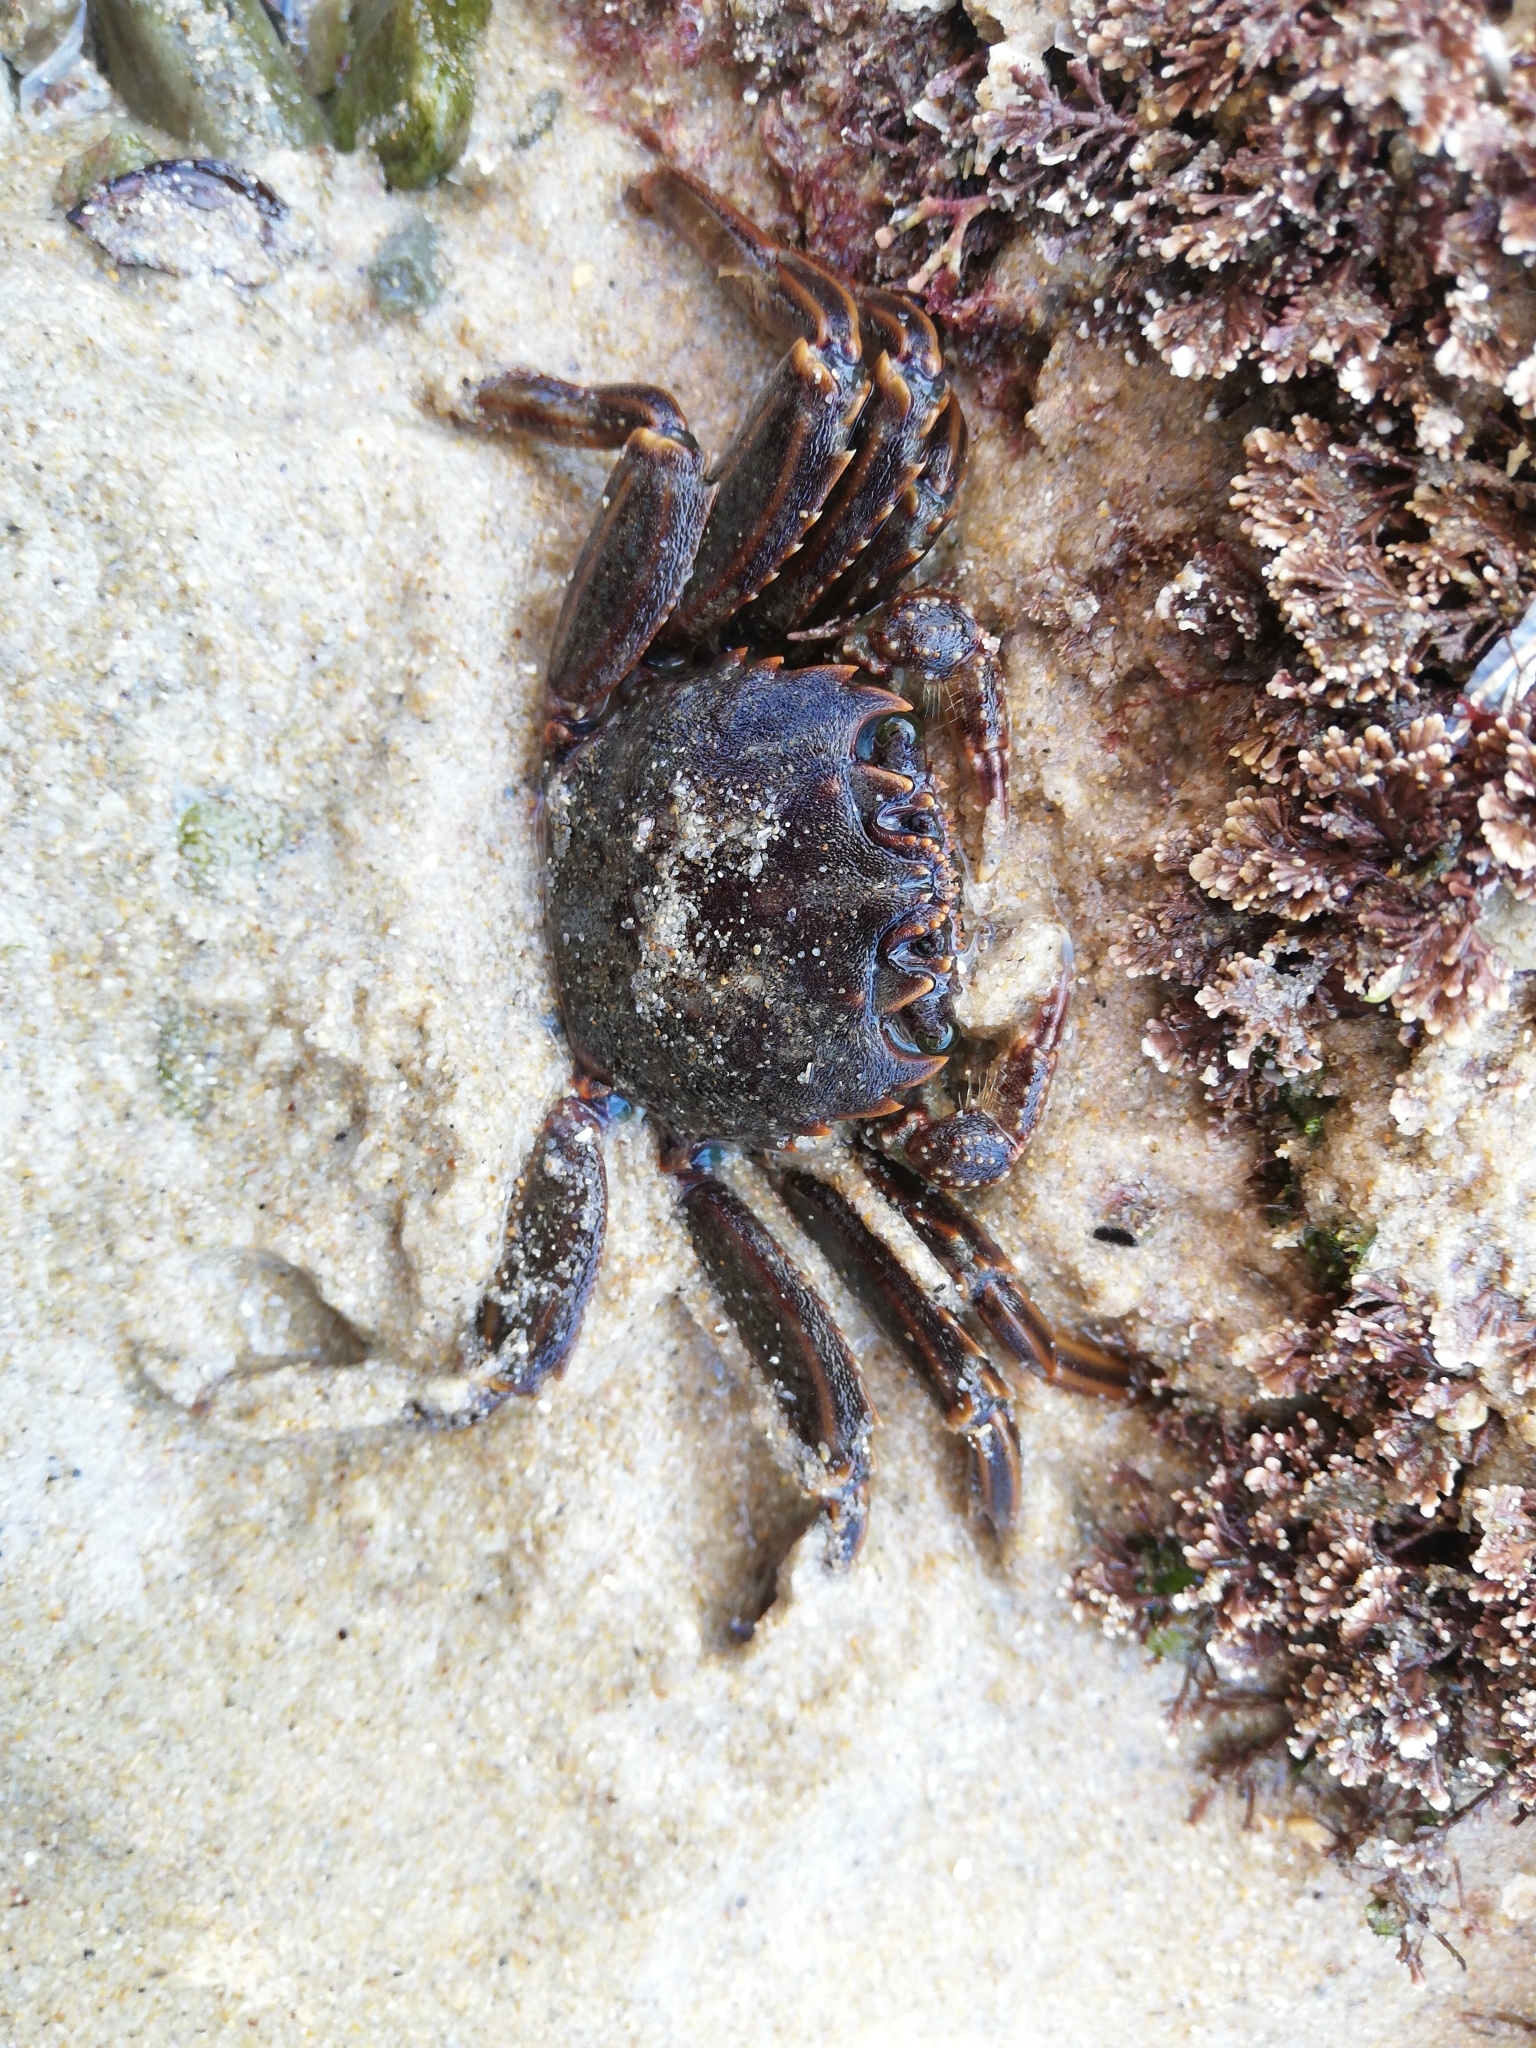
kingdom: Animalia
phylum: Arthropoda
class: Malacostraca
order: Decapoda
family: Plagusiidae
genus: Guinusia
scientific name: Guinusia chabrus
